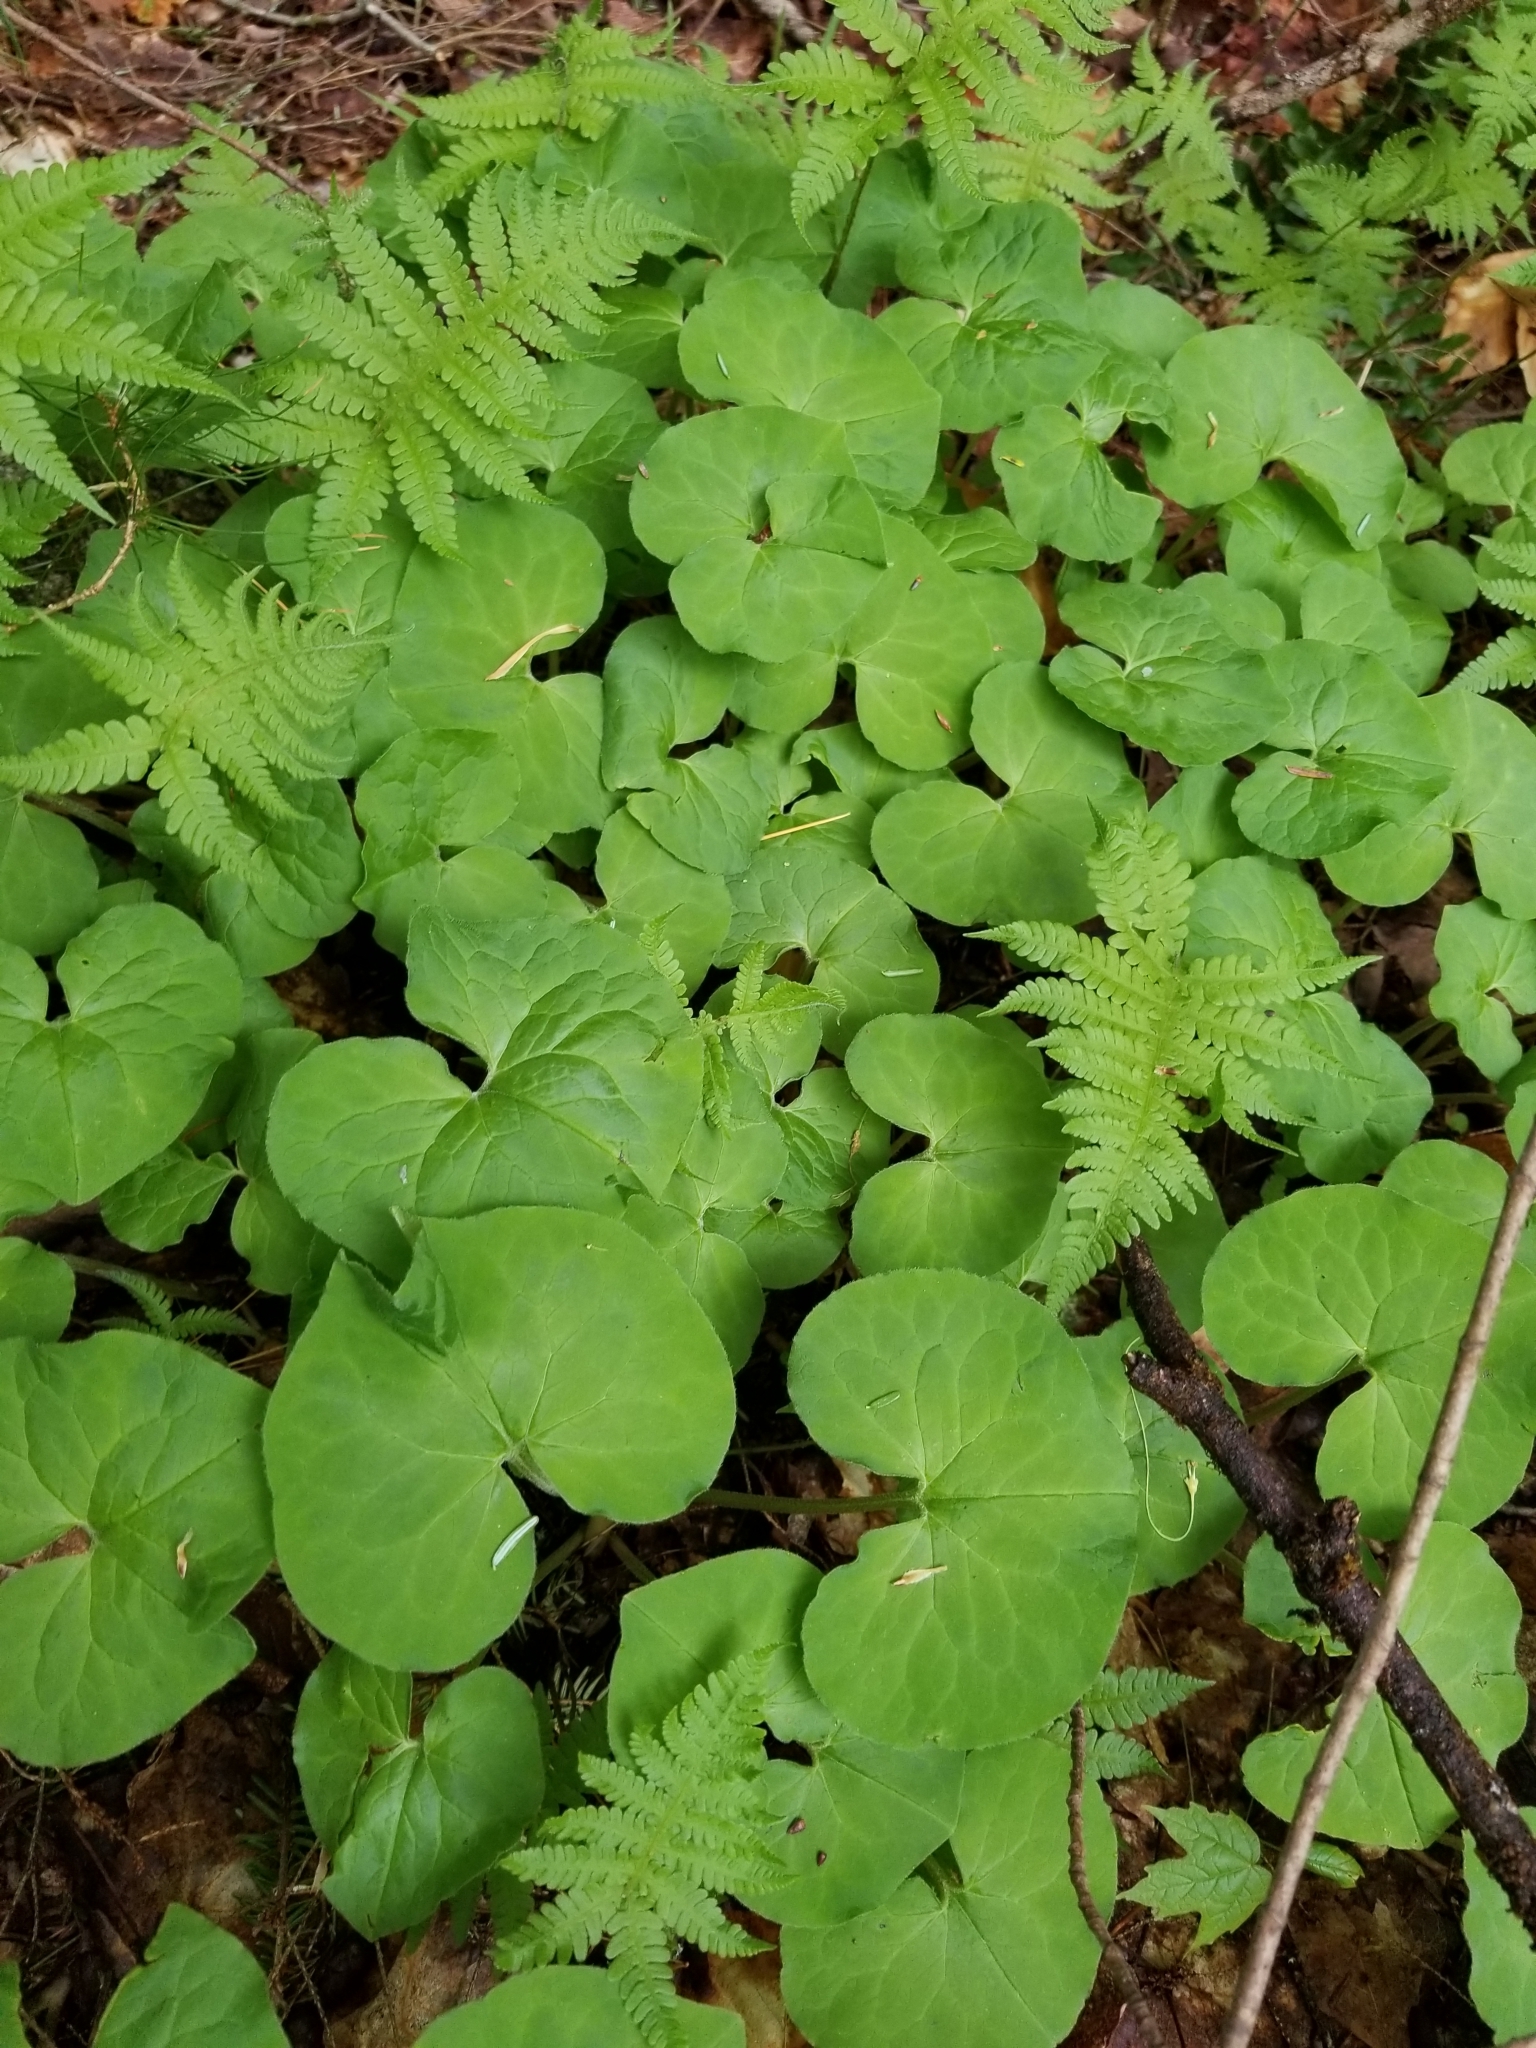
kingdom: Plantae
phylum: Tracheophyta
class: Magnoliopsida
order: Piperales
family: Aristolochiaceae
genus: Asarum
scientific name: Asarum canadense
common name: Wild ginger
